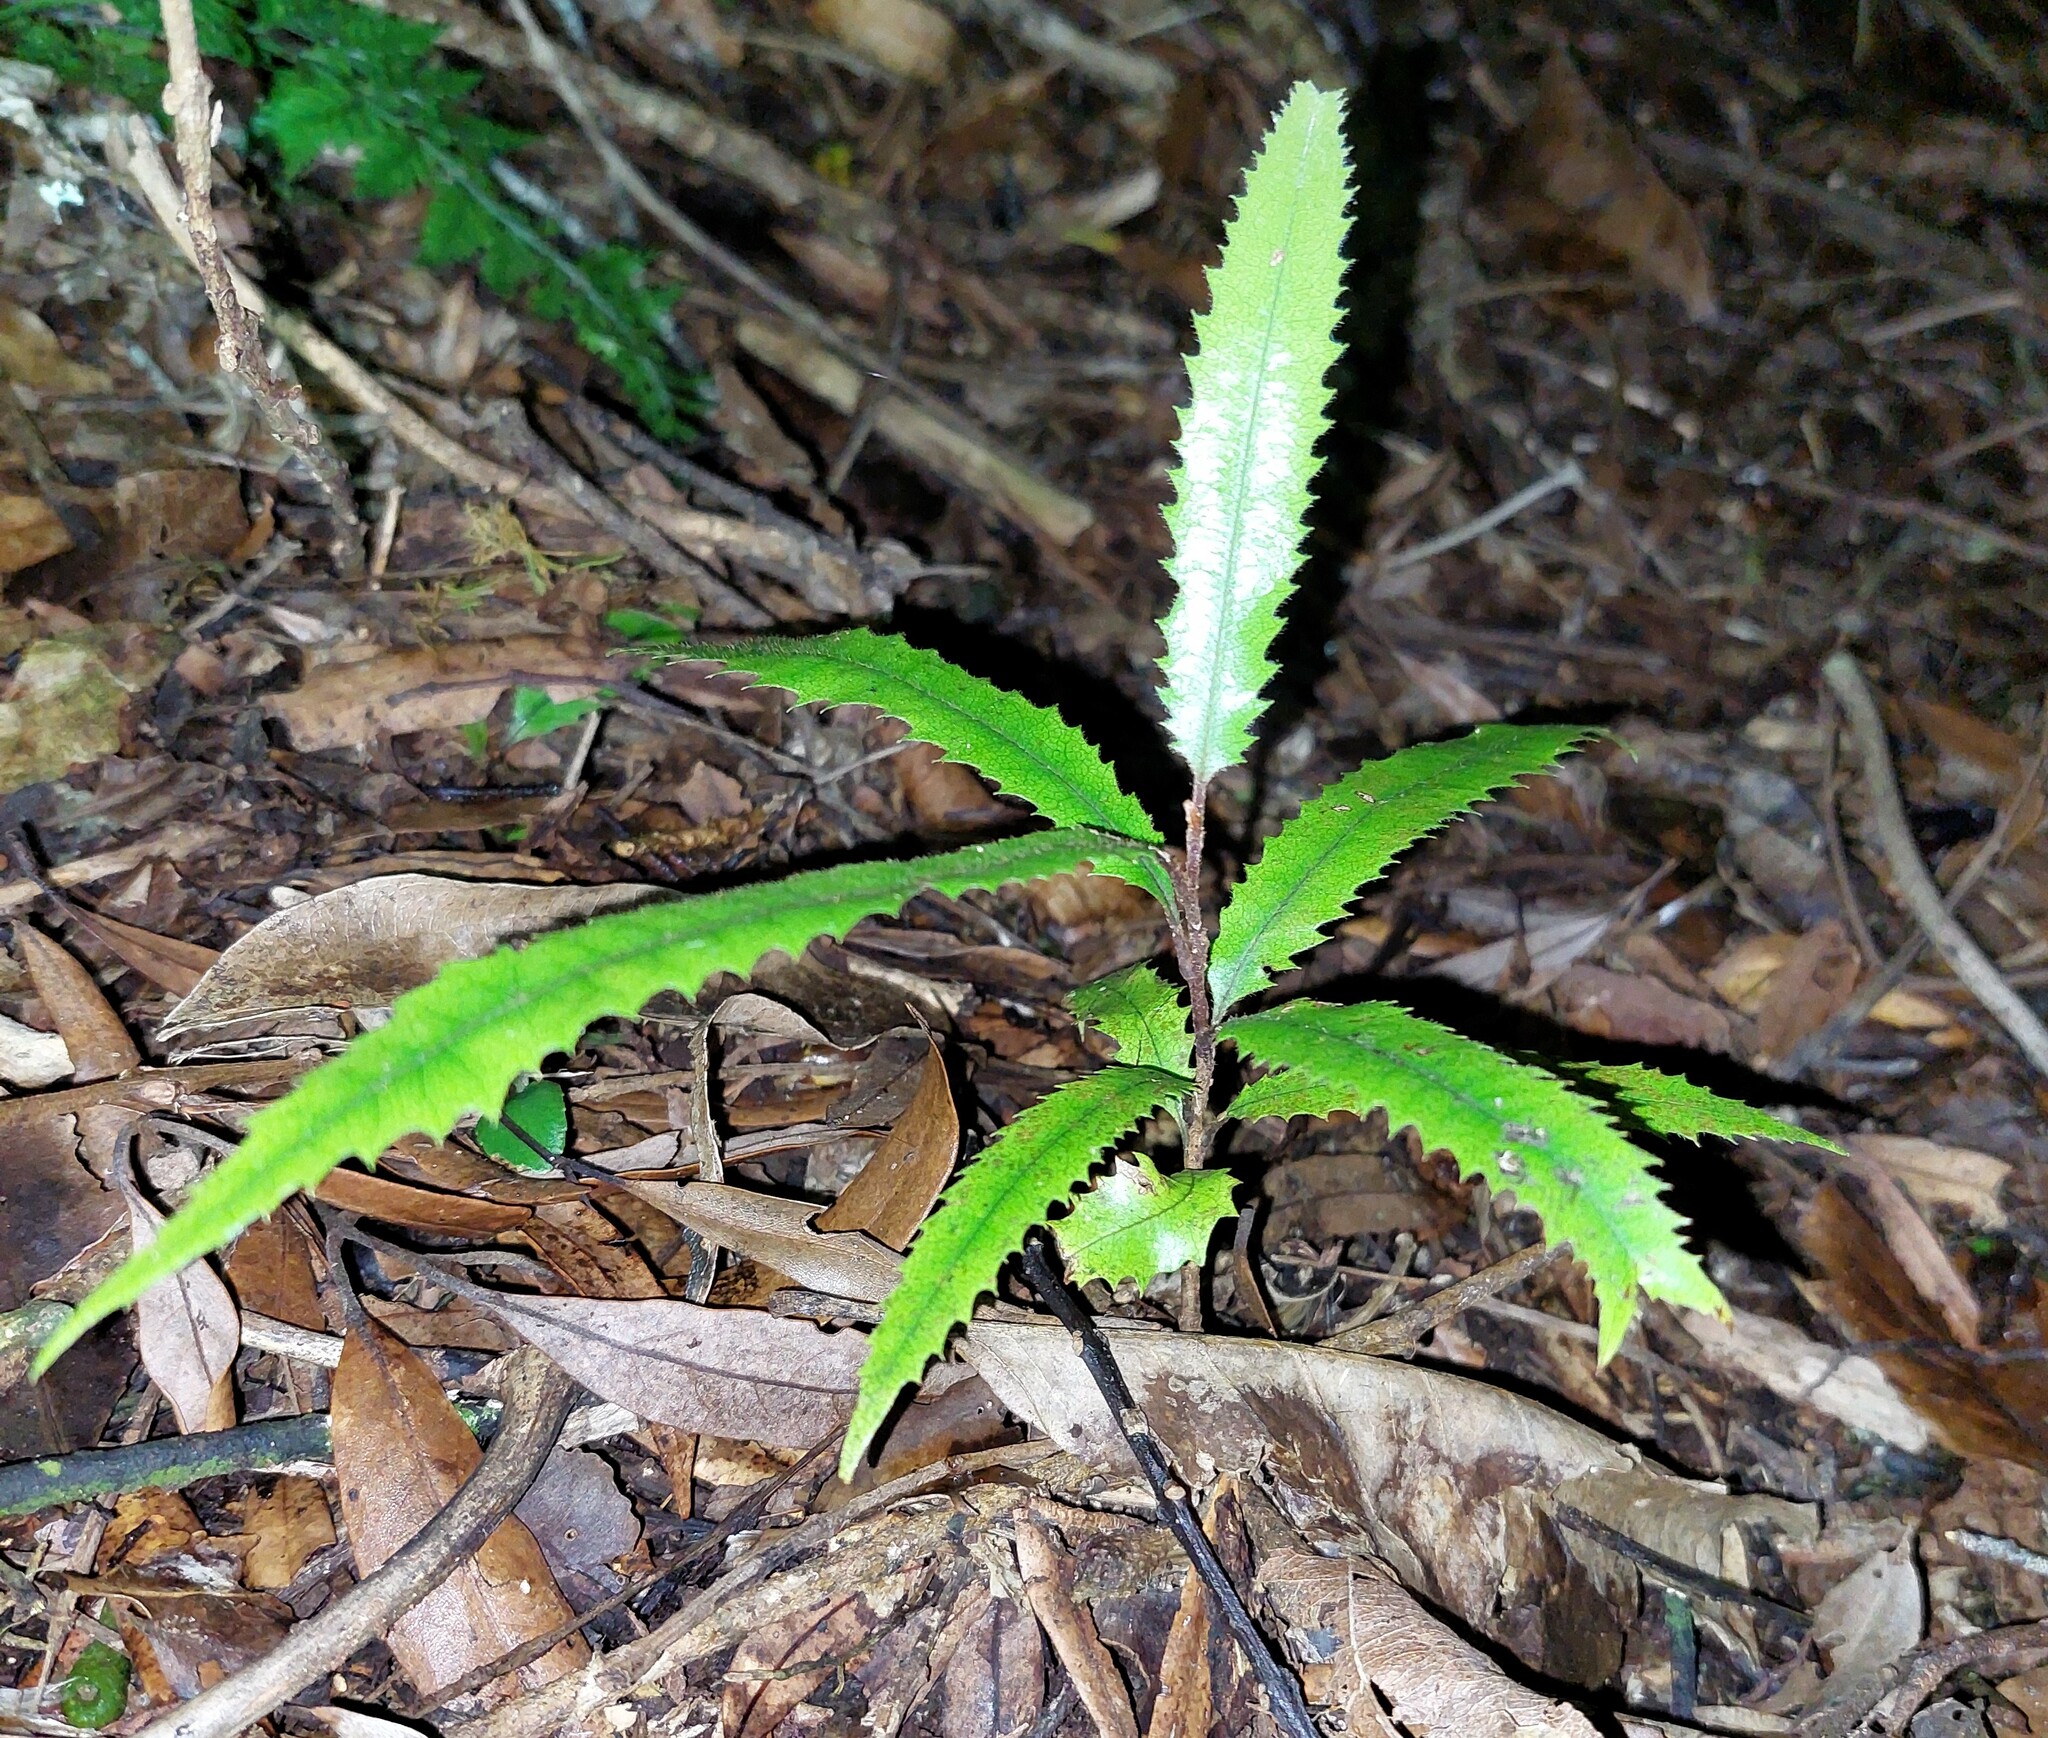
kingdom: Plantae
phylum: Tracheophyta
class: Magnoliopsida
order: Proteales
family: Proteaceae
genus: Knightia
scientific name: Knightia excelsa
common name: New zealand-honeysuckle
